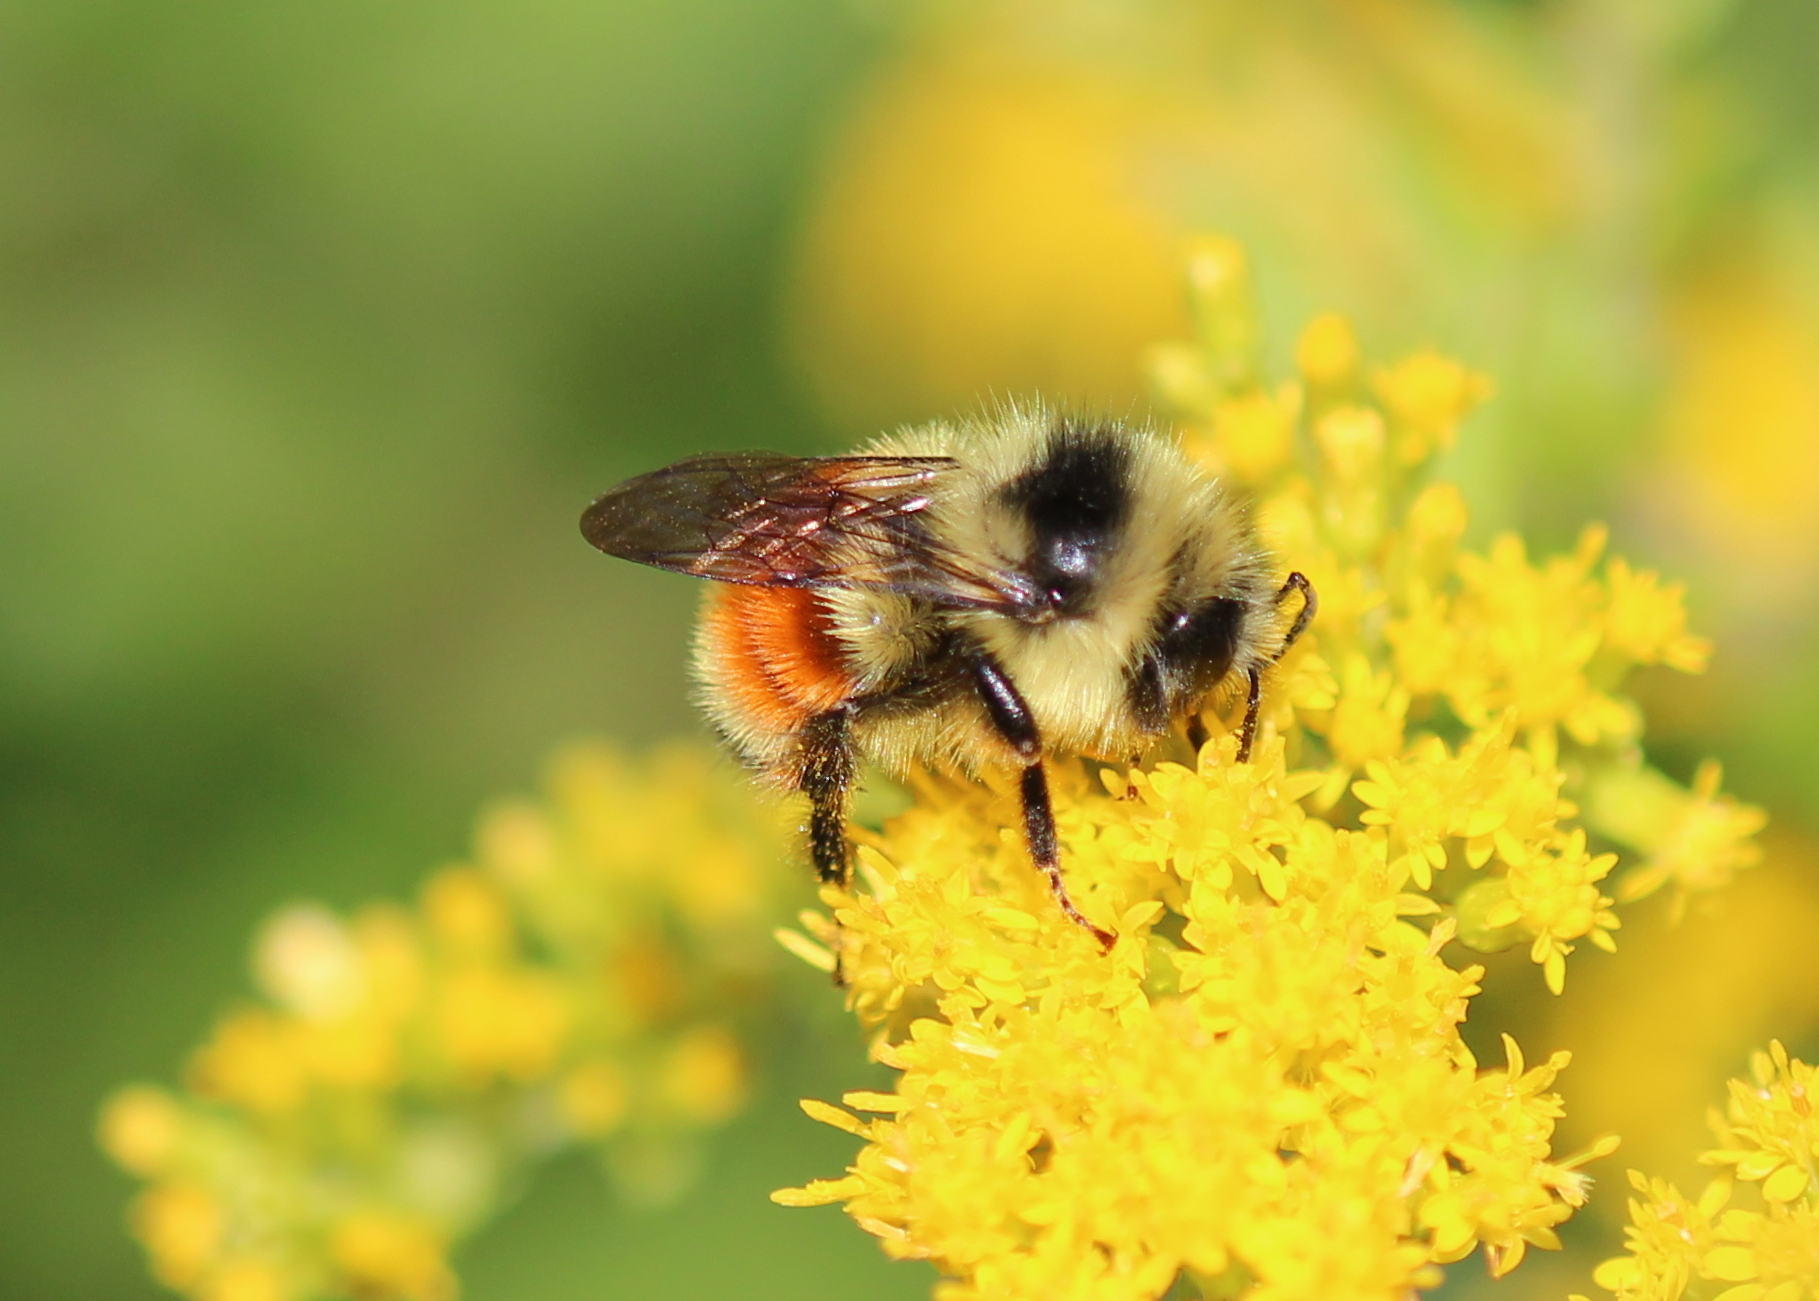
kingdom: Animalia
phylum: Arthropoda
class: Insecta
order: Hymenoptera
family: Apidae
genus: Bombus
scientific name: Bombus ternarius
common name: Tri-colored bumble bee
